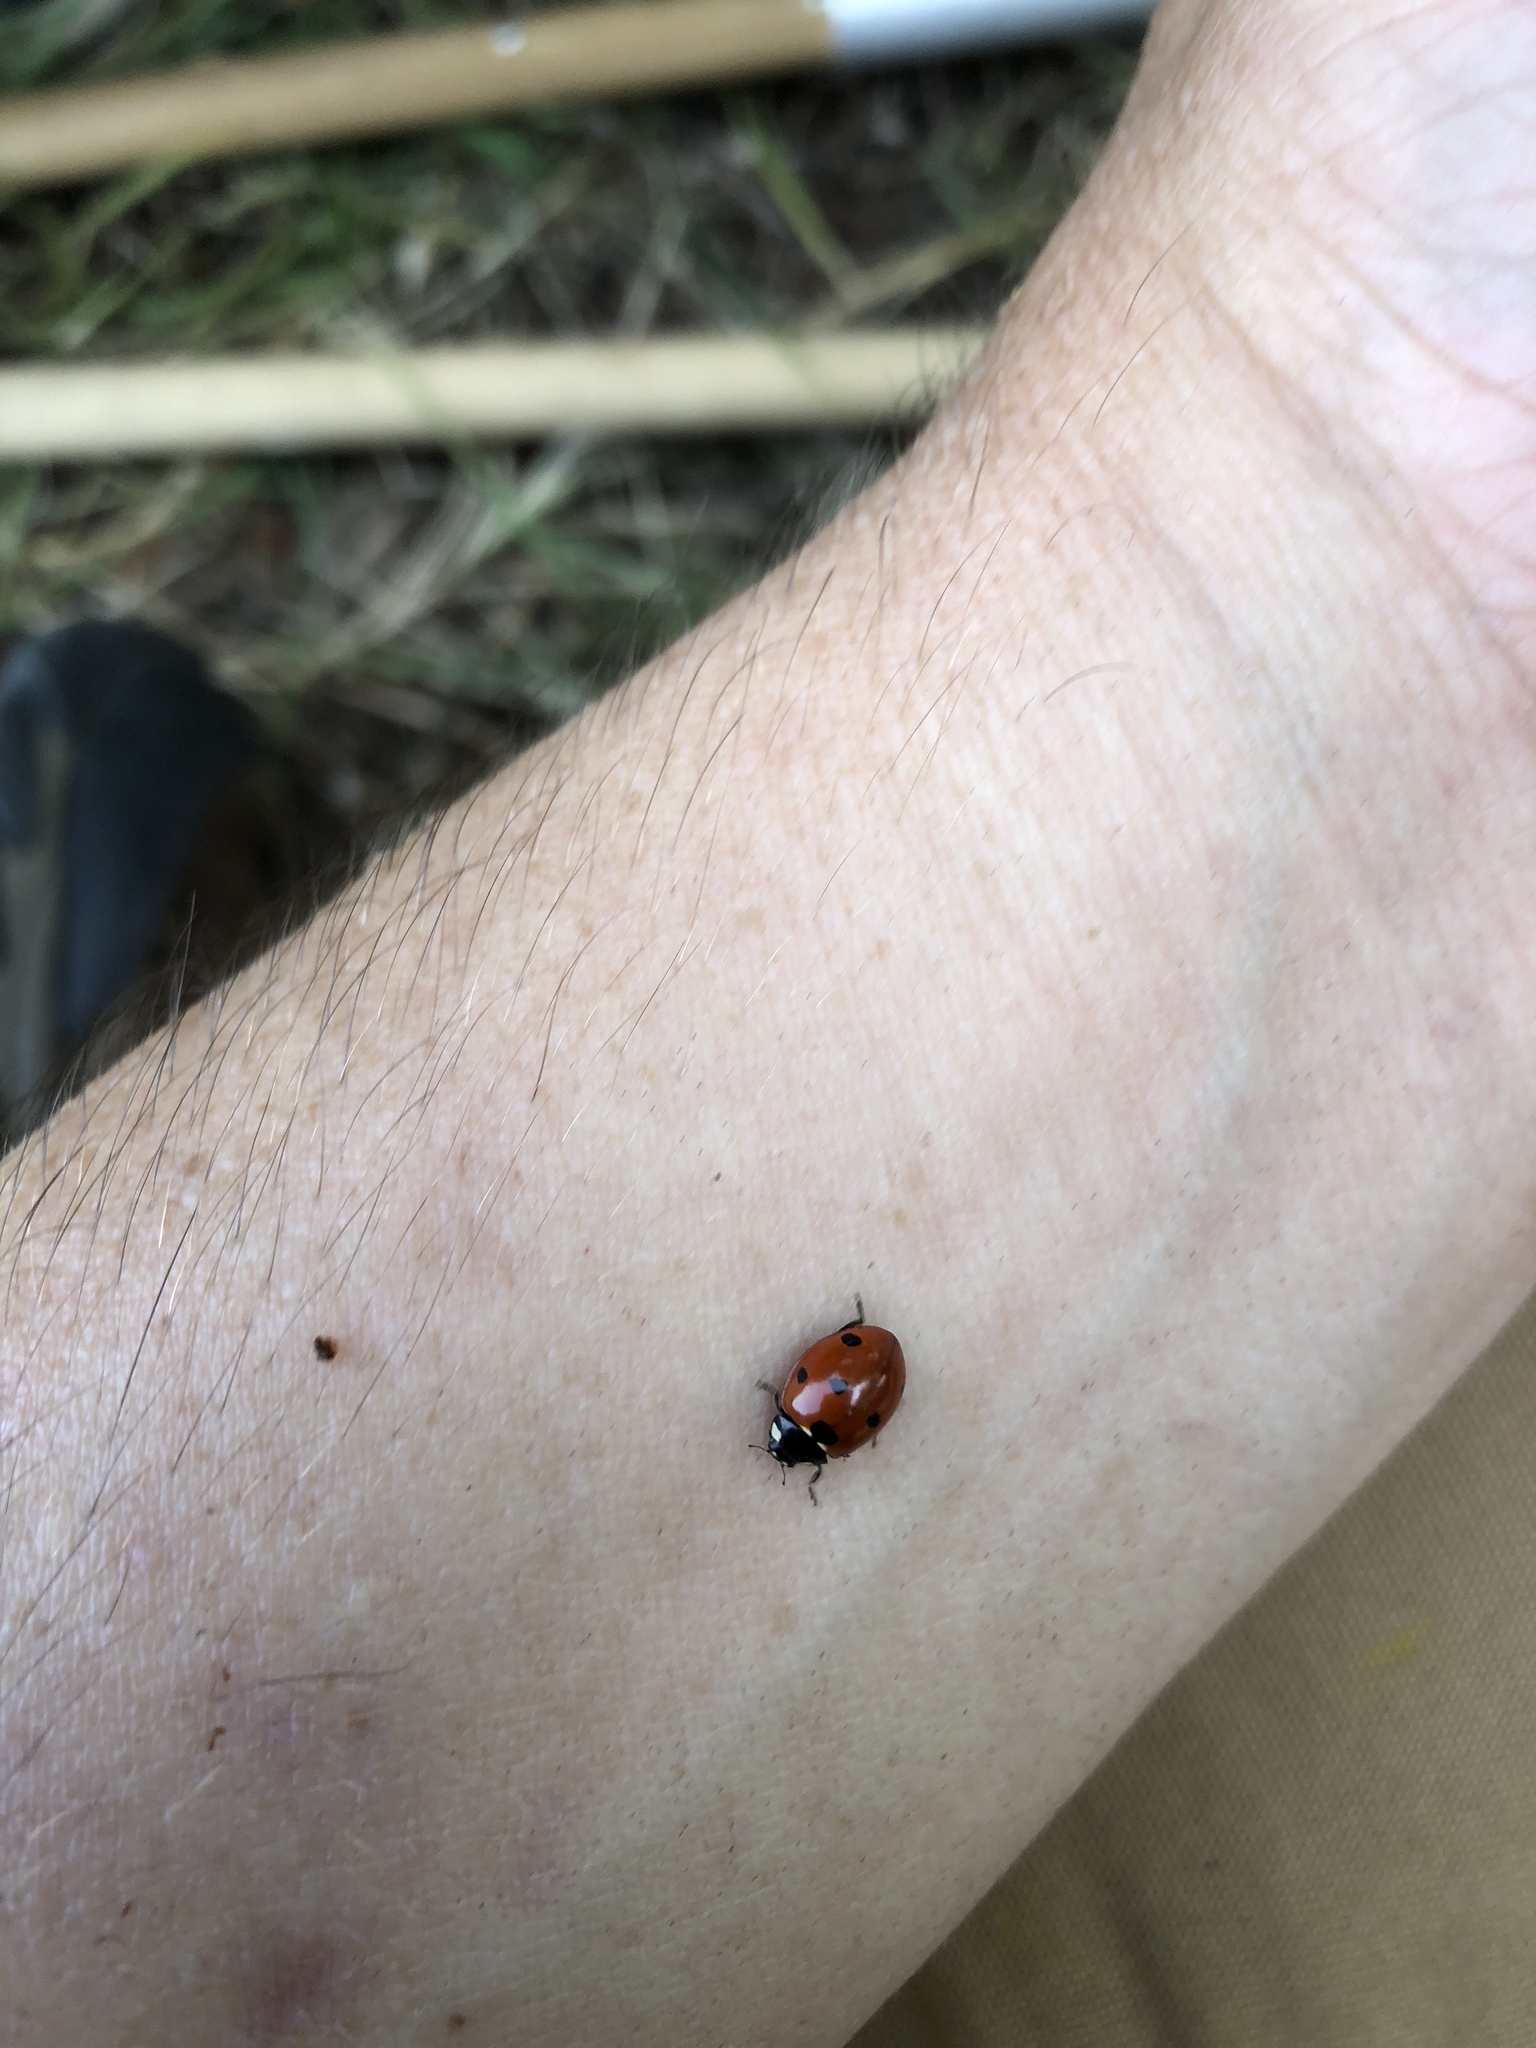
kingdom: Animalia
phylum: Arthropoda
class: Insecta
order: Coleoptera
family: Coccinellidae
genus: Coccinella
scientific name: Coccinella septempunctata
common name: Sevenspotted lady beetle
